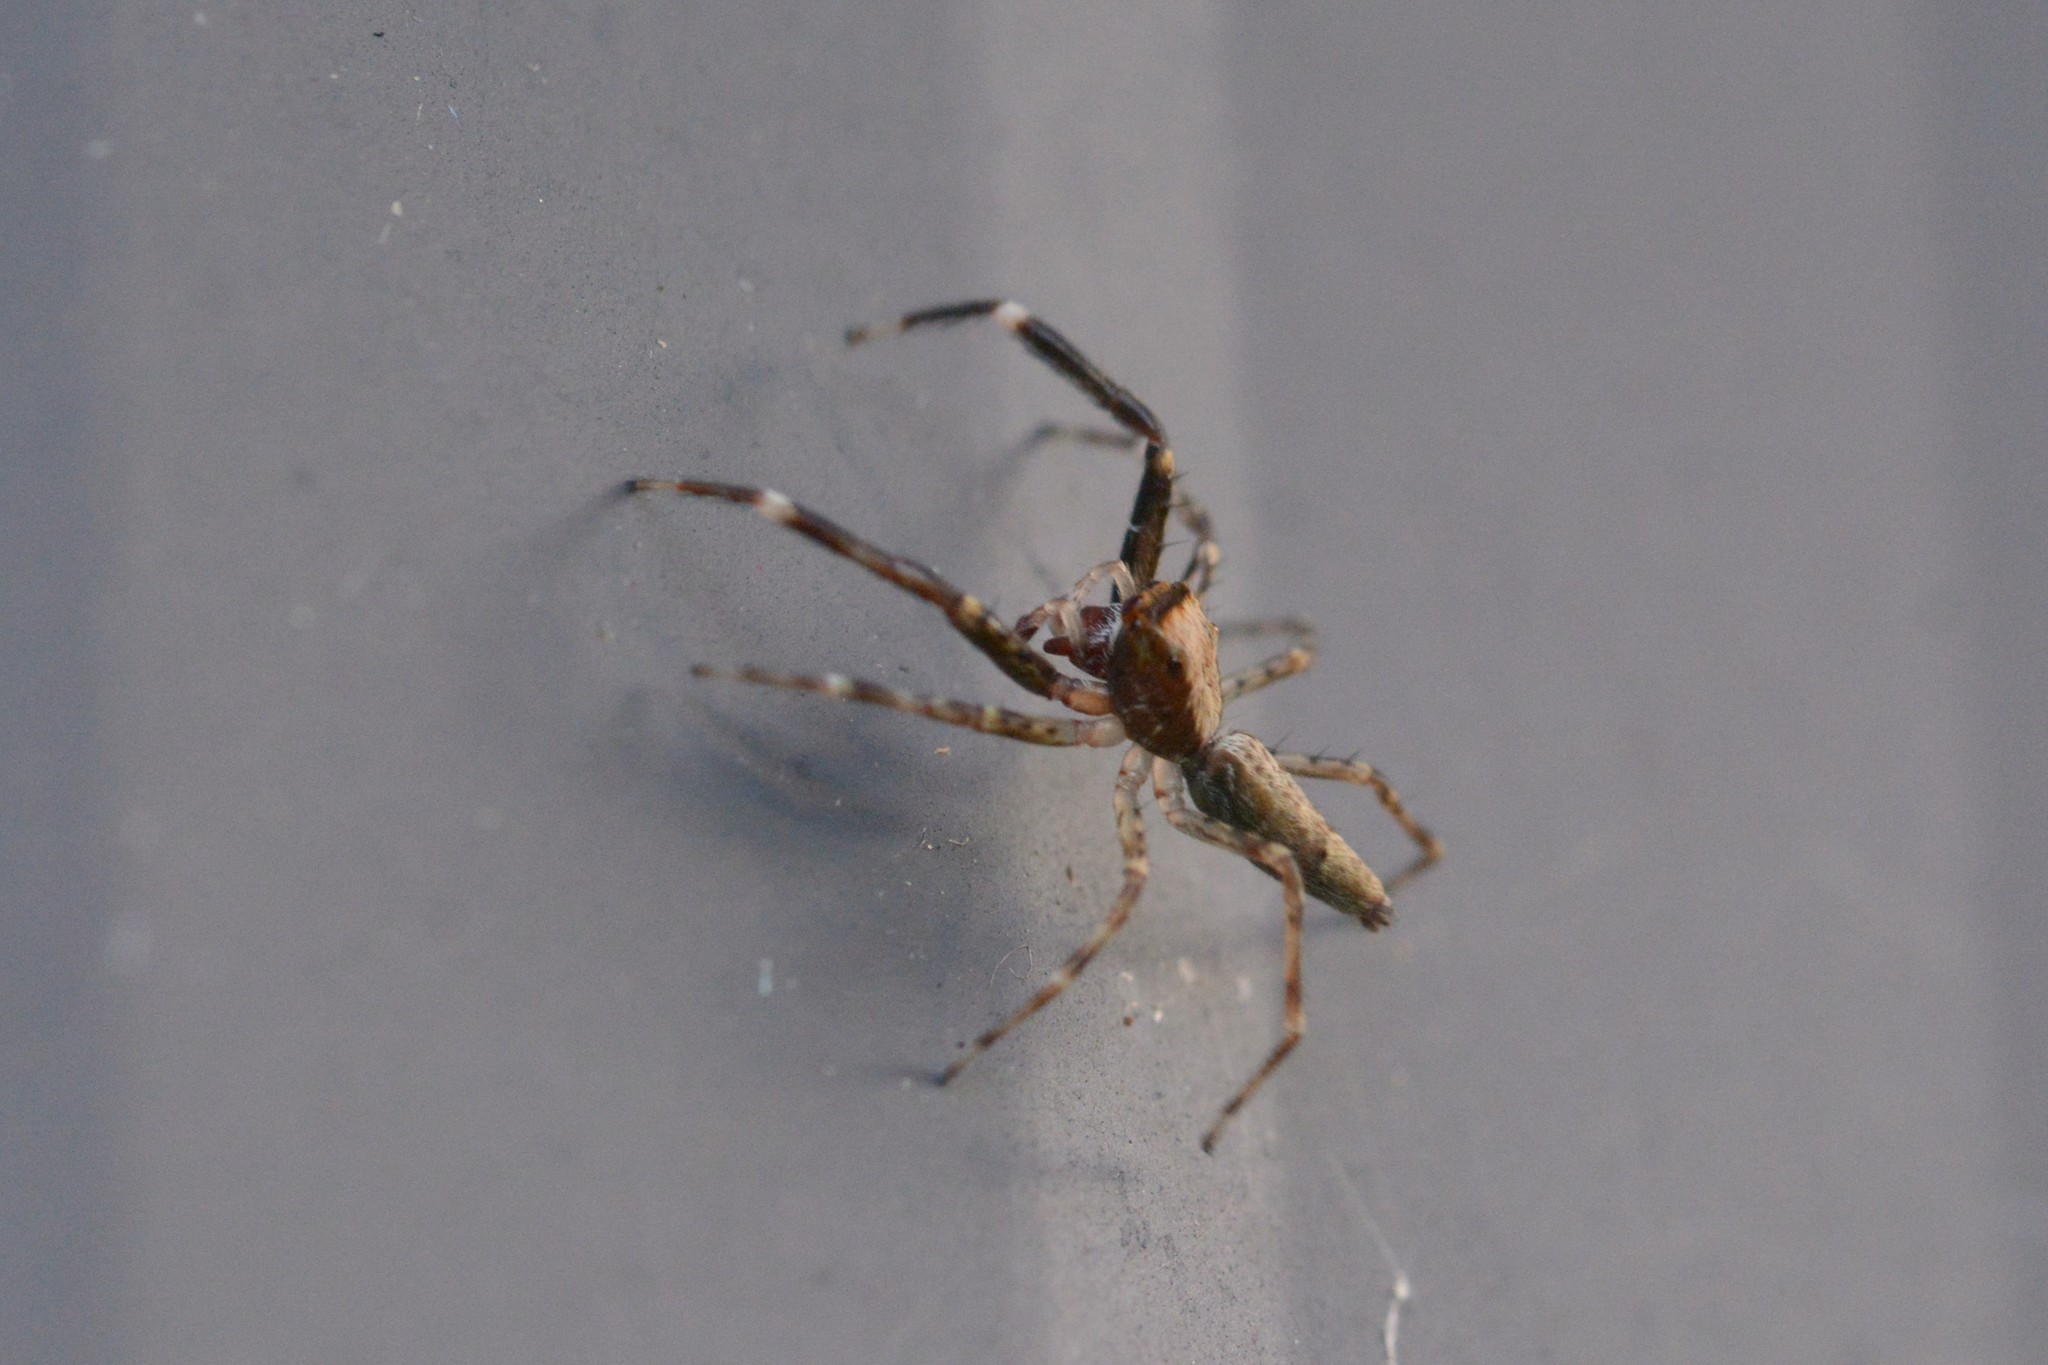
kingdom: Animalia
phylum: Arthropoda
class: Arachnida
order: Araneae
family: Salticidae
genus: Helpis
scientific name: Helpis minitabunda
